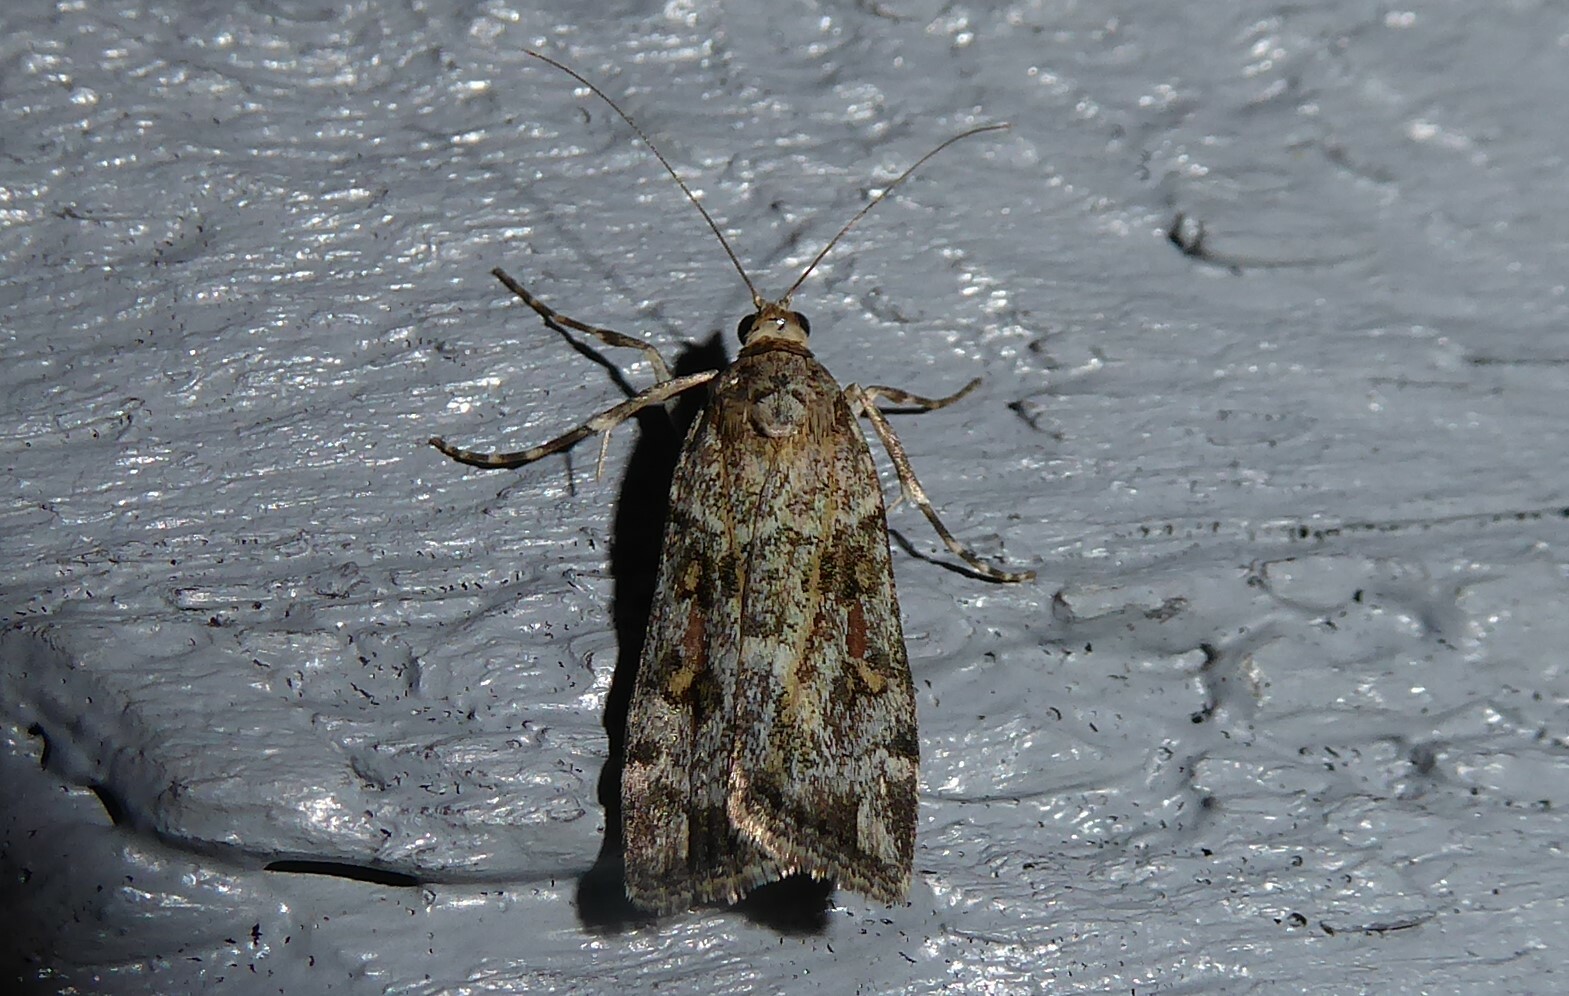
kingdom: Animalia
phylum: Arthropoda
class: Insecta
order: Lepidoptera
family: Crambidae
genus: Scoparia
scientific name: Scoparia tetracycla
